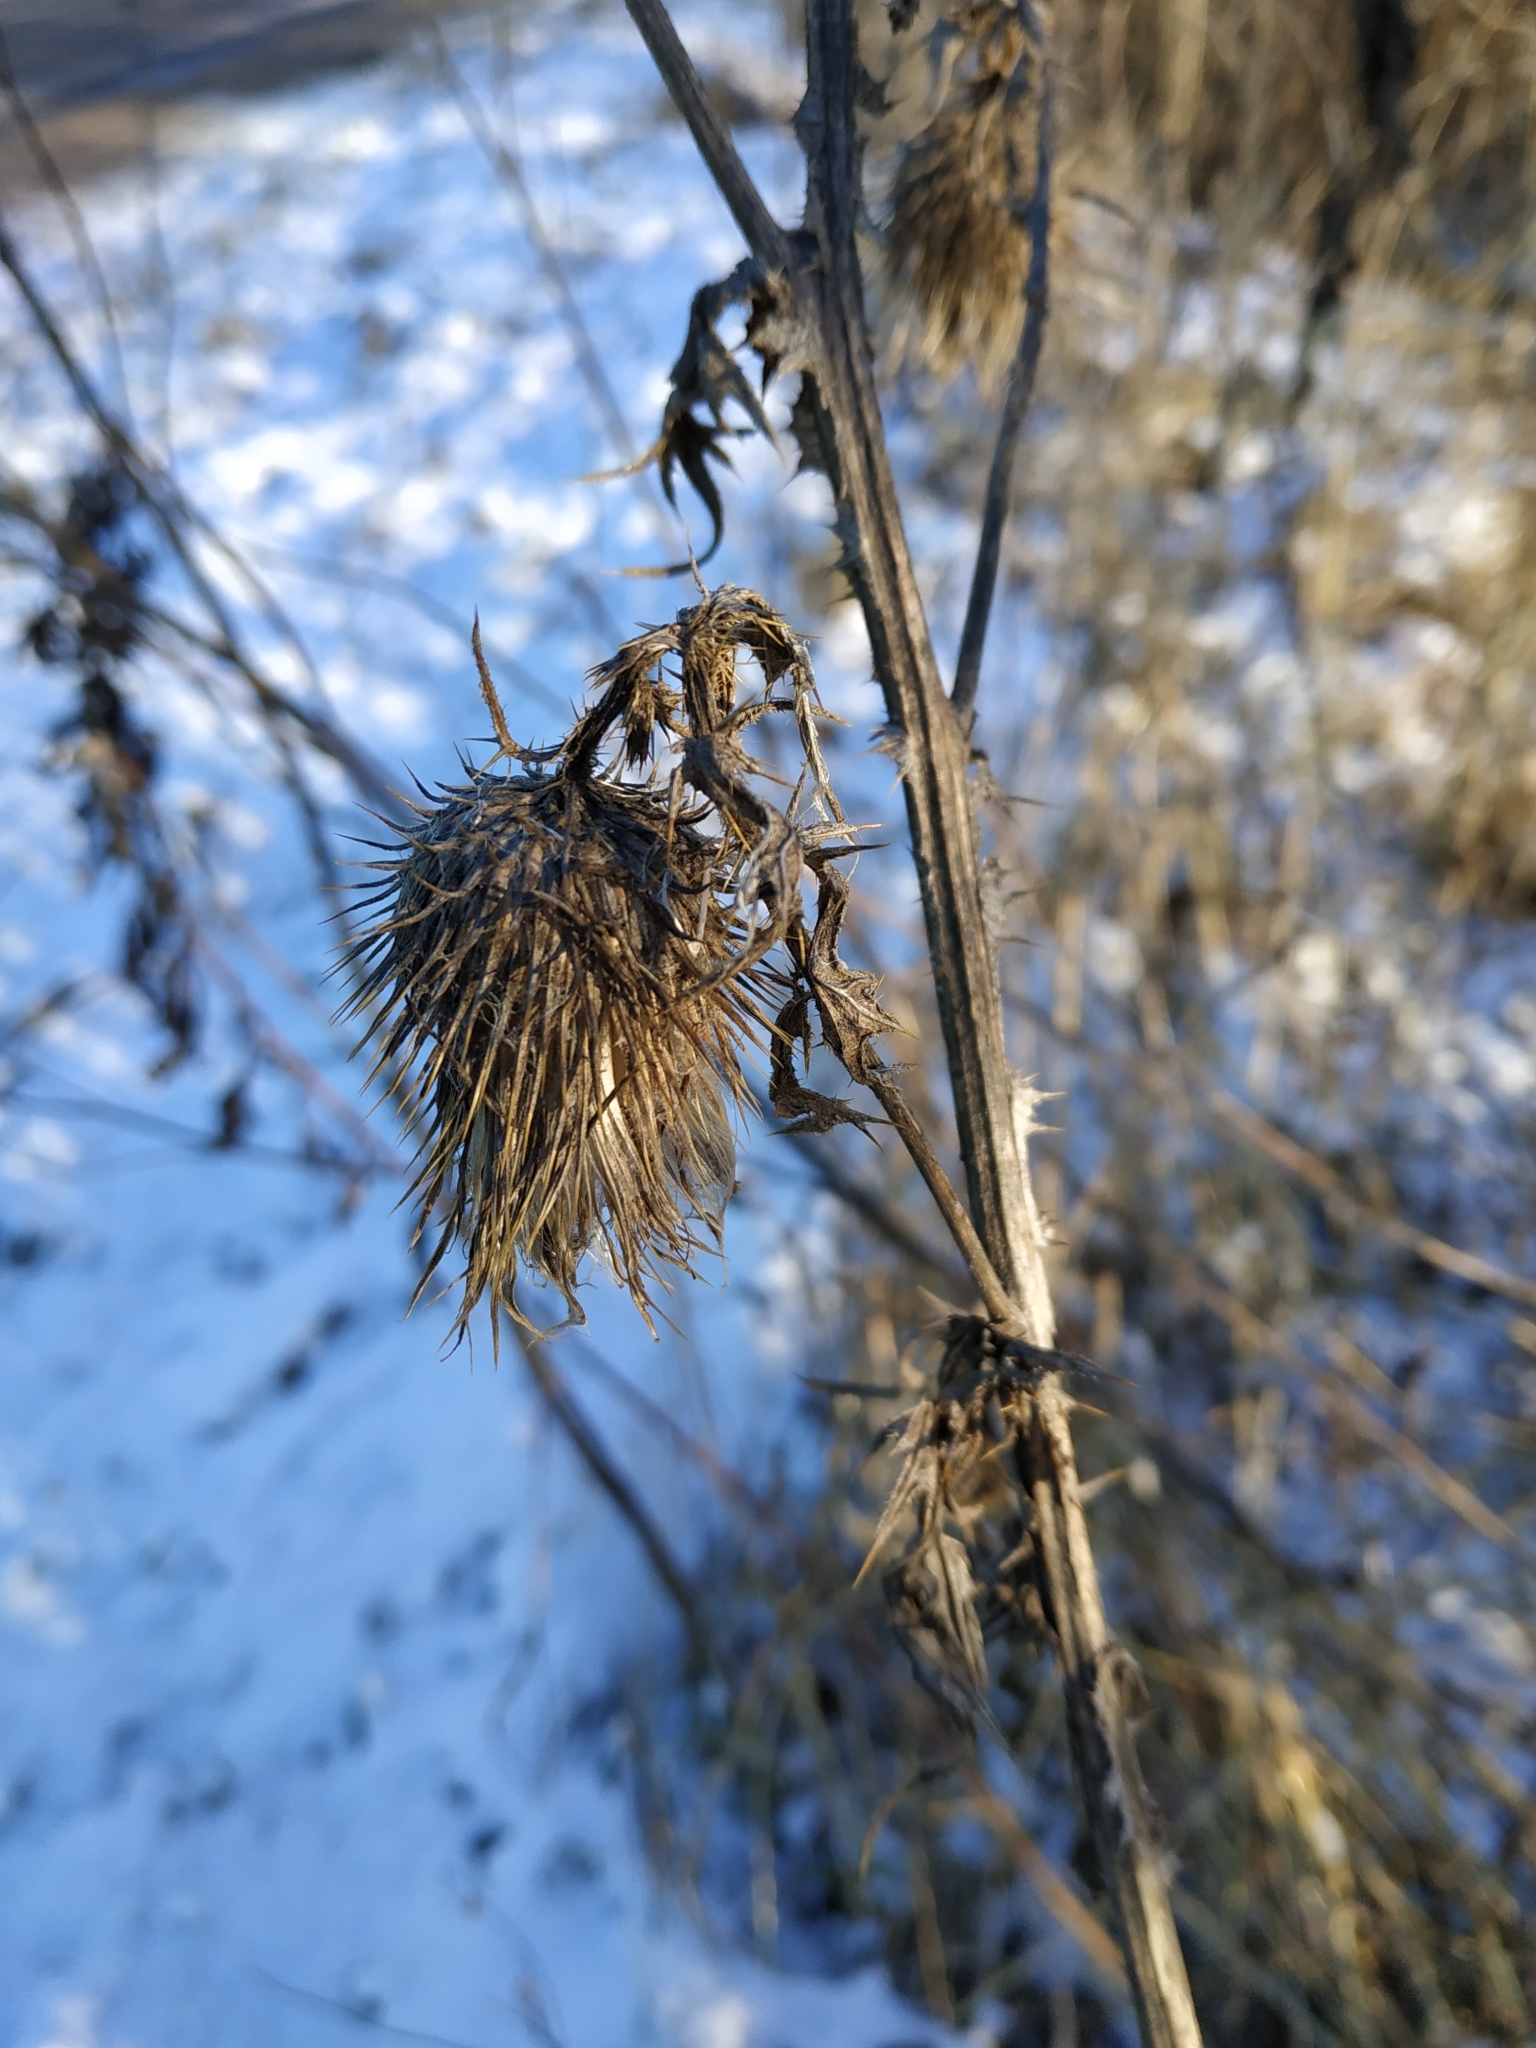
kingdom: Plantae
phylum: Tracheophyta
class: Magnoliopsida
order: Asterales
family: Asteraceae
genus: Cirsium
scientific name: Cirsium vulgare
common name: Bull thistle
